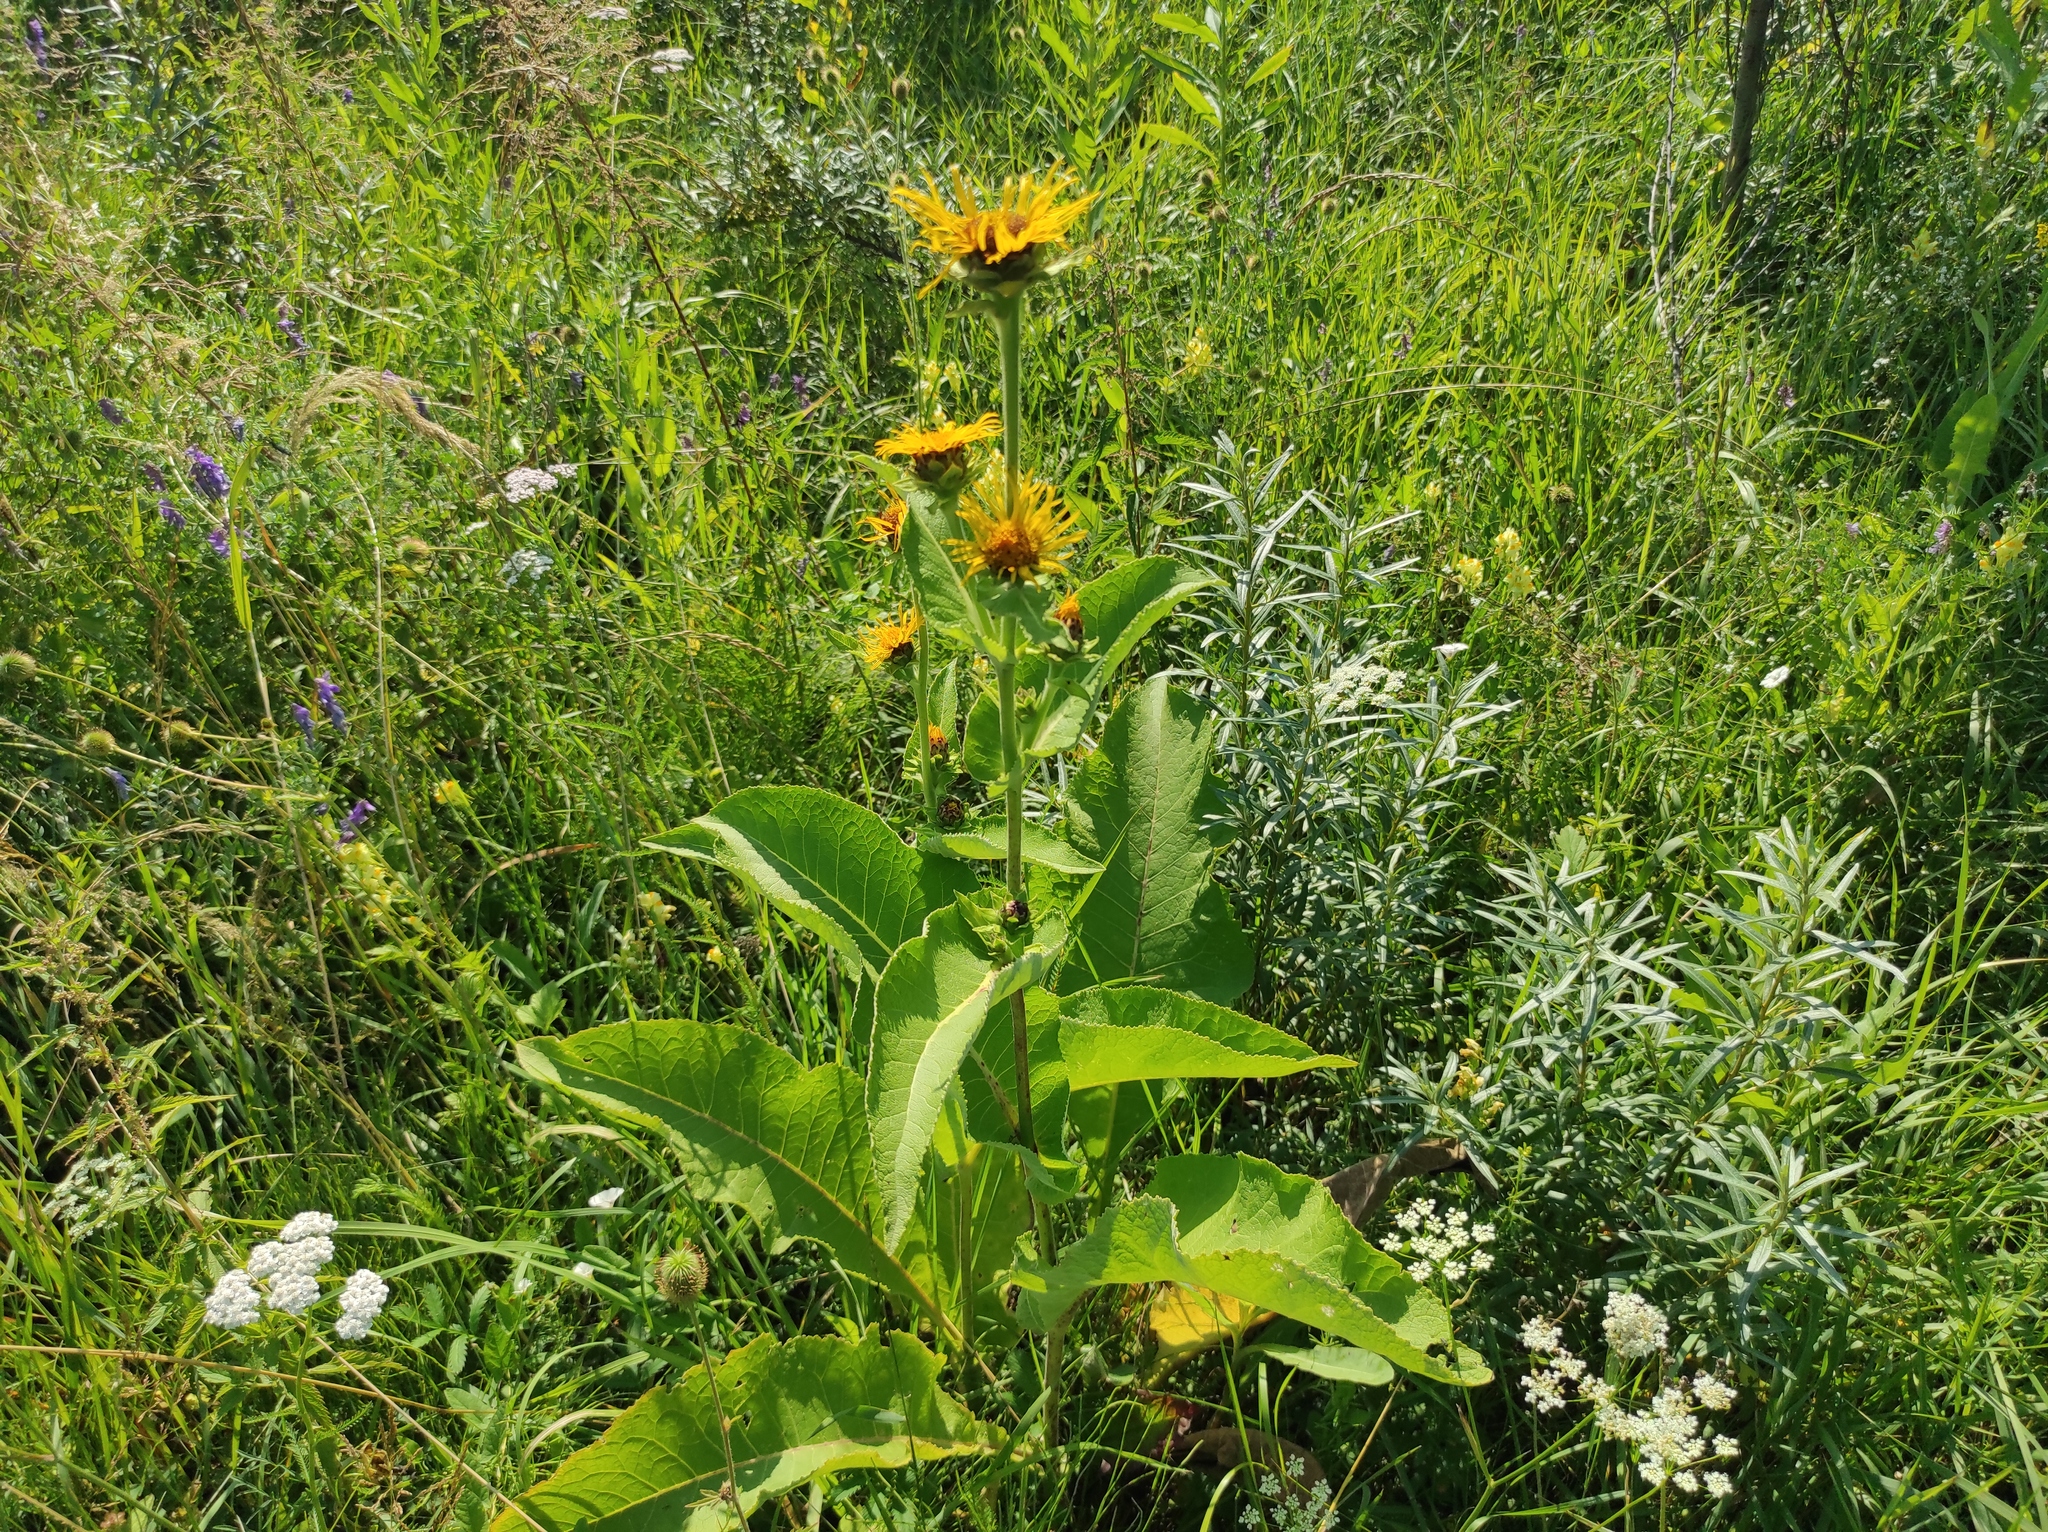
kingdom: Plantae
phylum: Tracheophyta
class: Magnoliopsida
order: Asterales
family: Asteraceae
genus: Inula
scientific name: Inula helenium
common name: Elecampane
